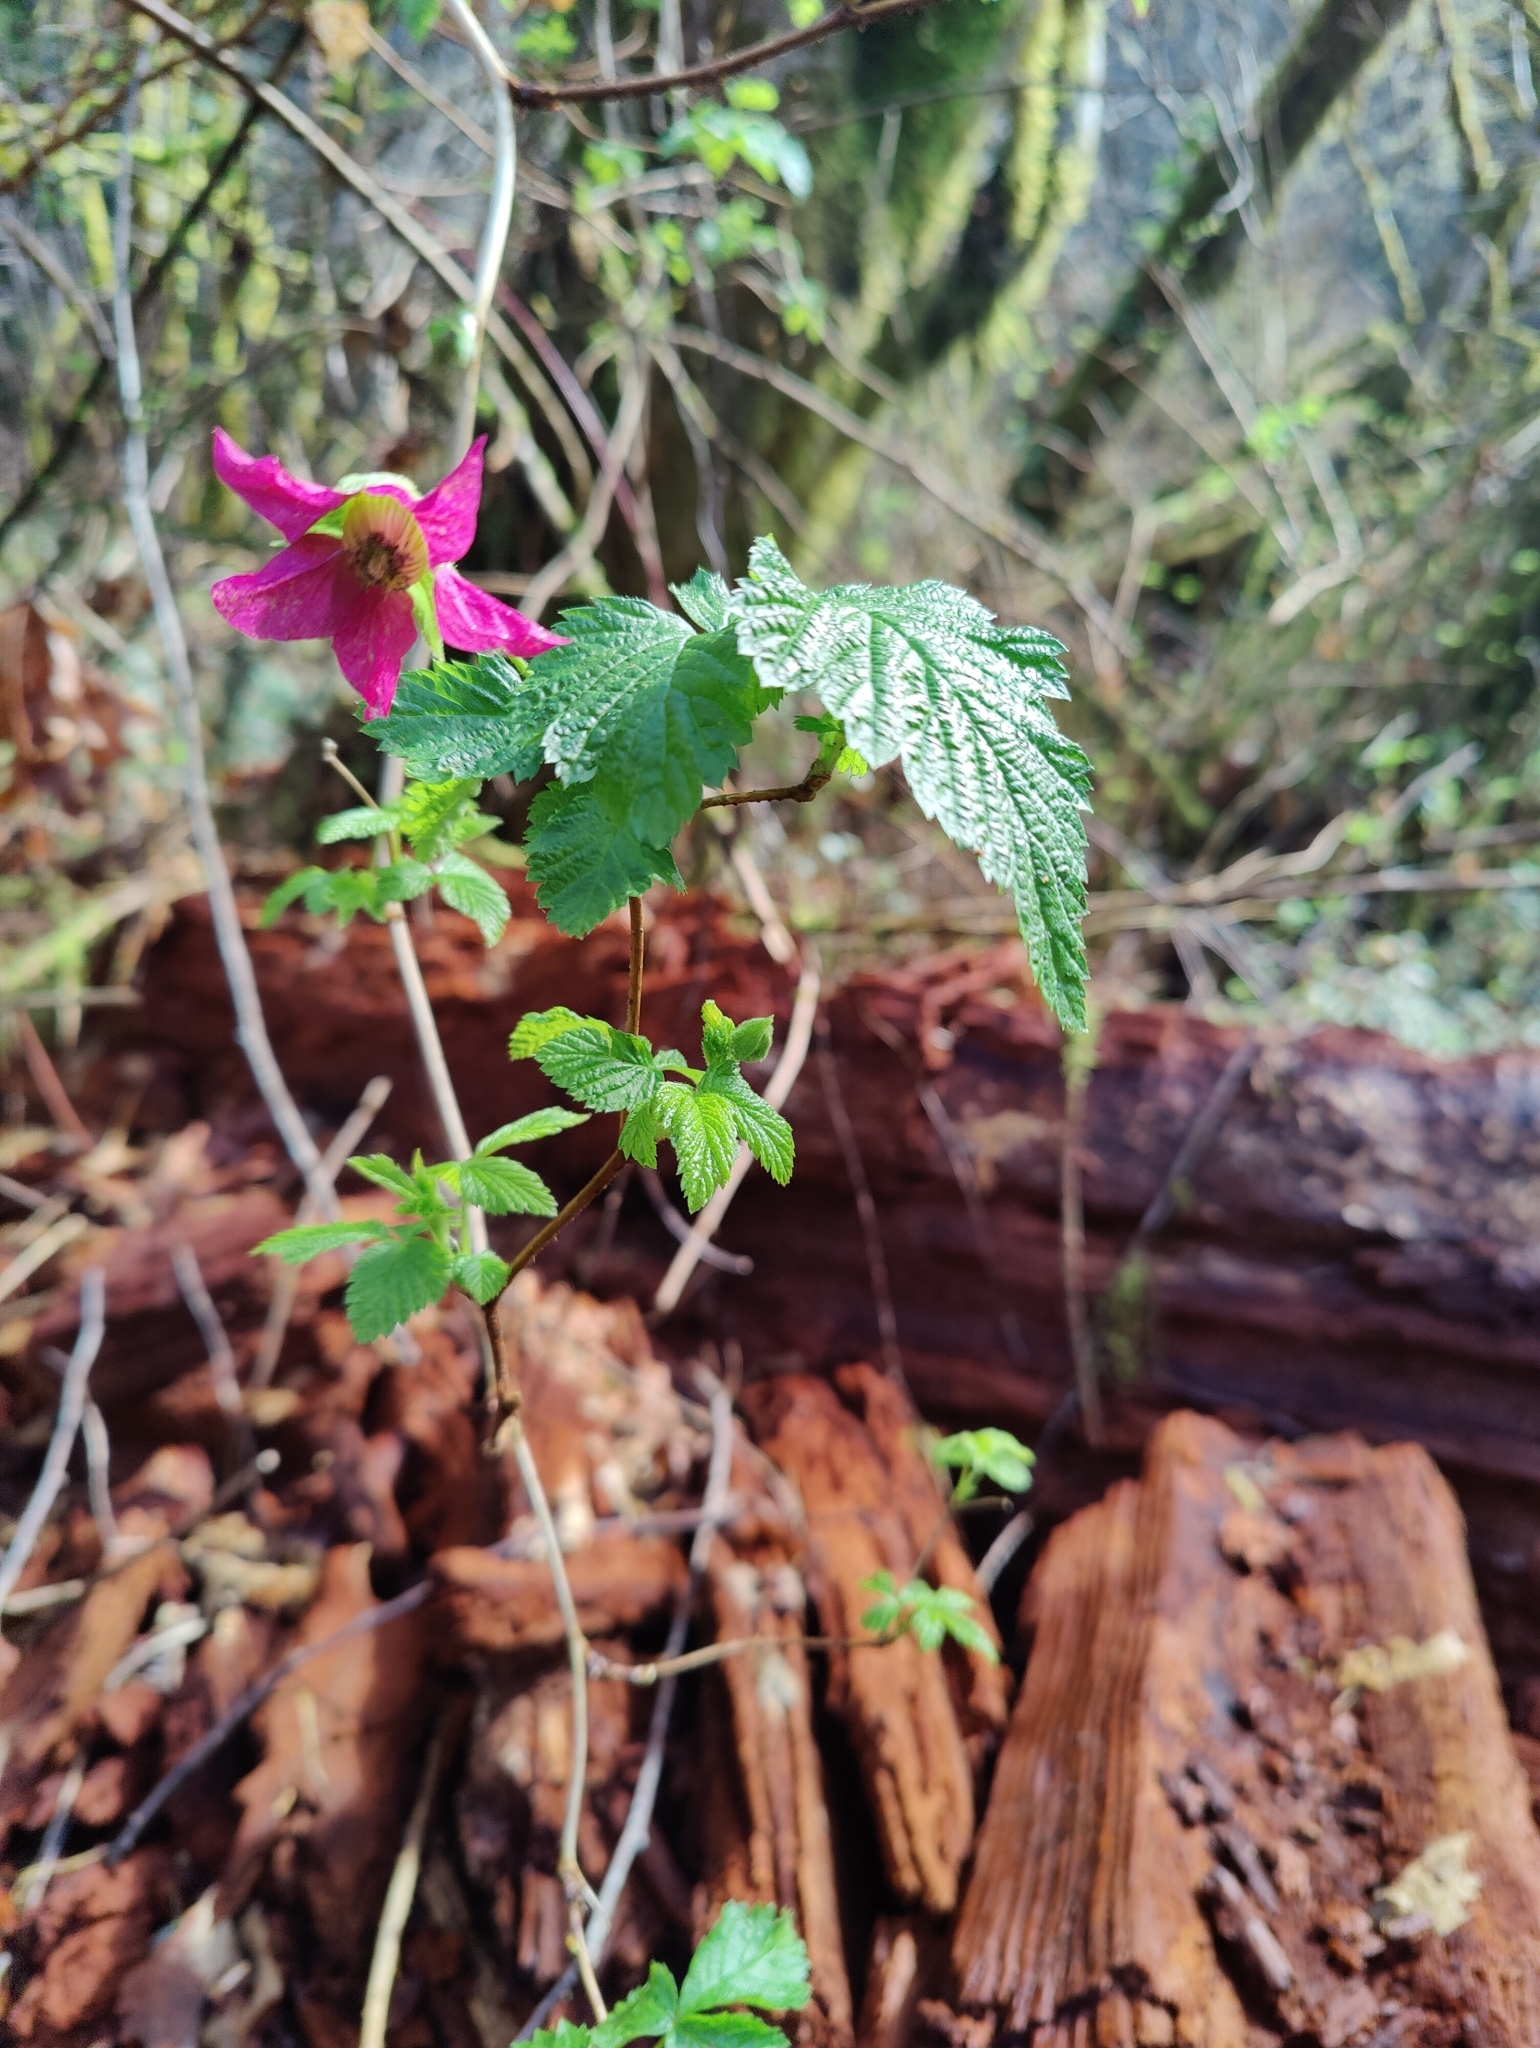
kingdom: Plantae
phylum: Tracheophyta
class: Magnoliopsida
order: Rosales
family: Rosaceae
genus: Rubus
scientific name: Rubus spectabilis
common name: Salmonberry
